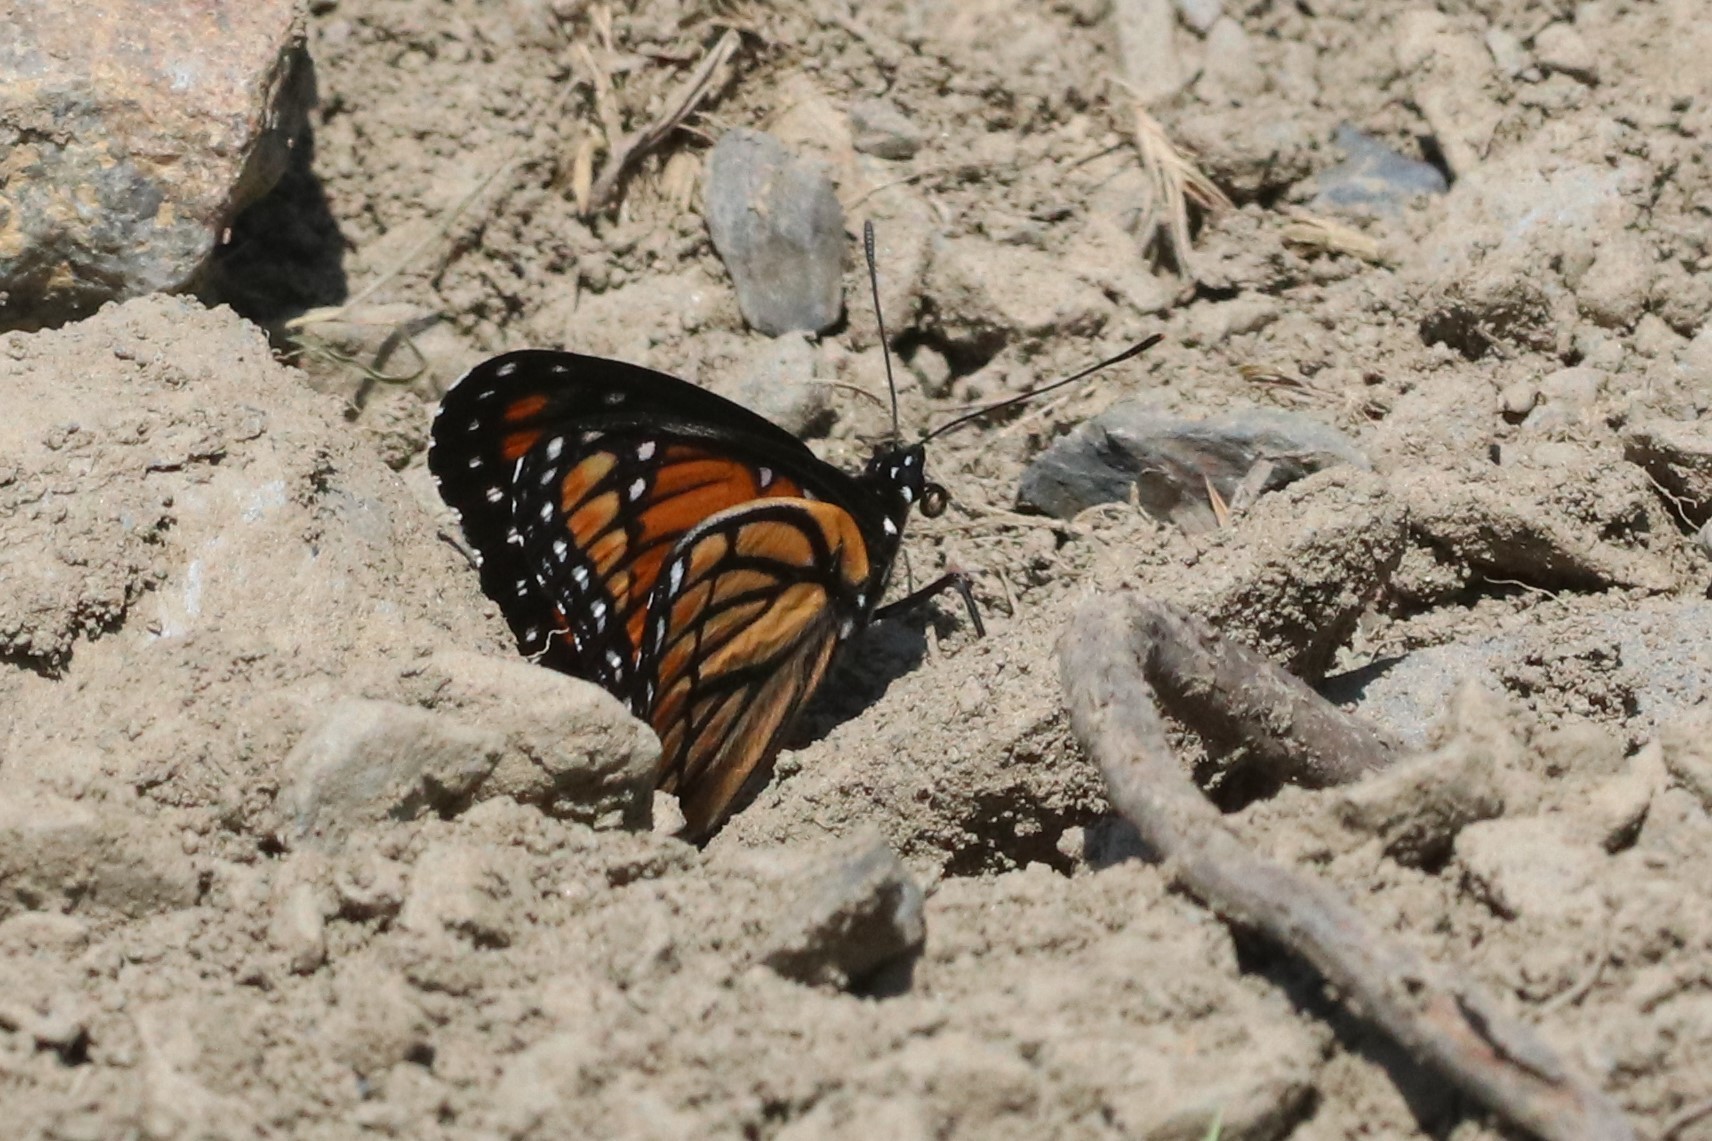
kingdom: Animalia
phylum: Arthropoda
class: Insecta
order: Lepidoptera
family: Nymphalidae
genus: Limenitis
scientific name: Limenitis archippus
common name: Viceroy
